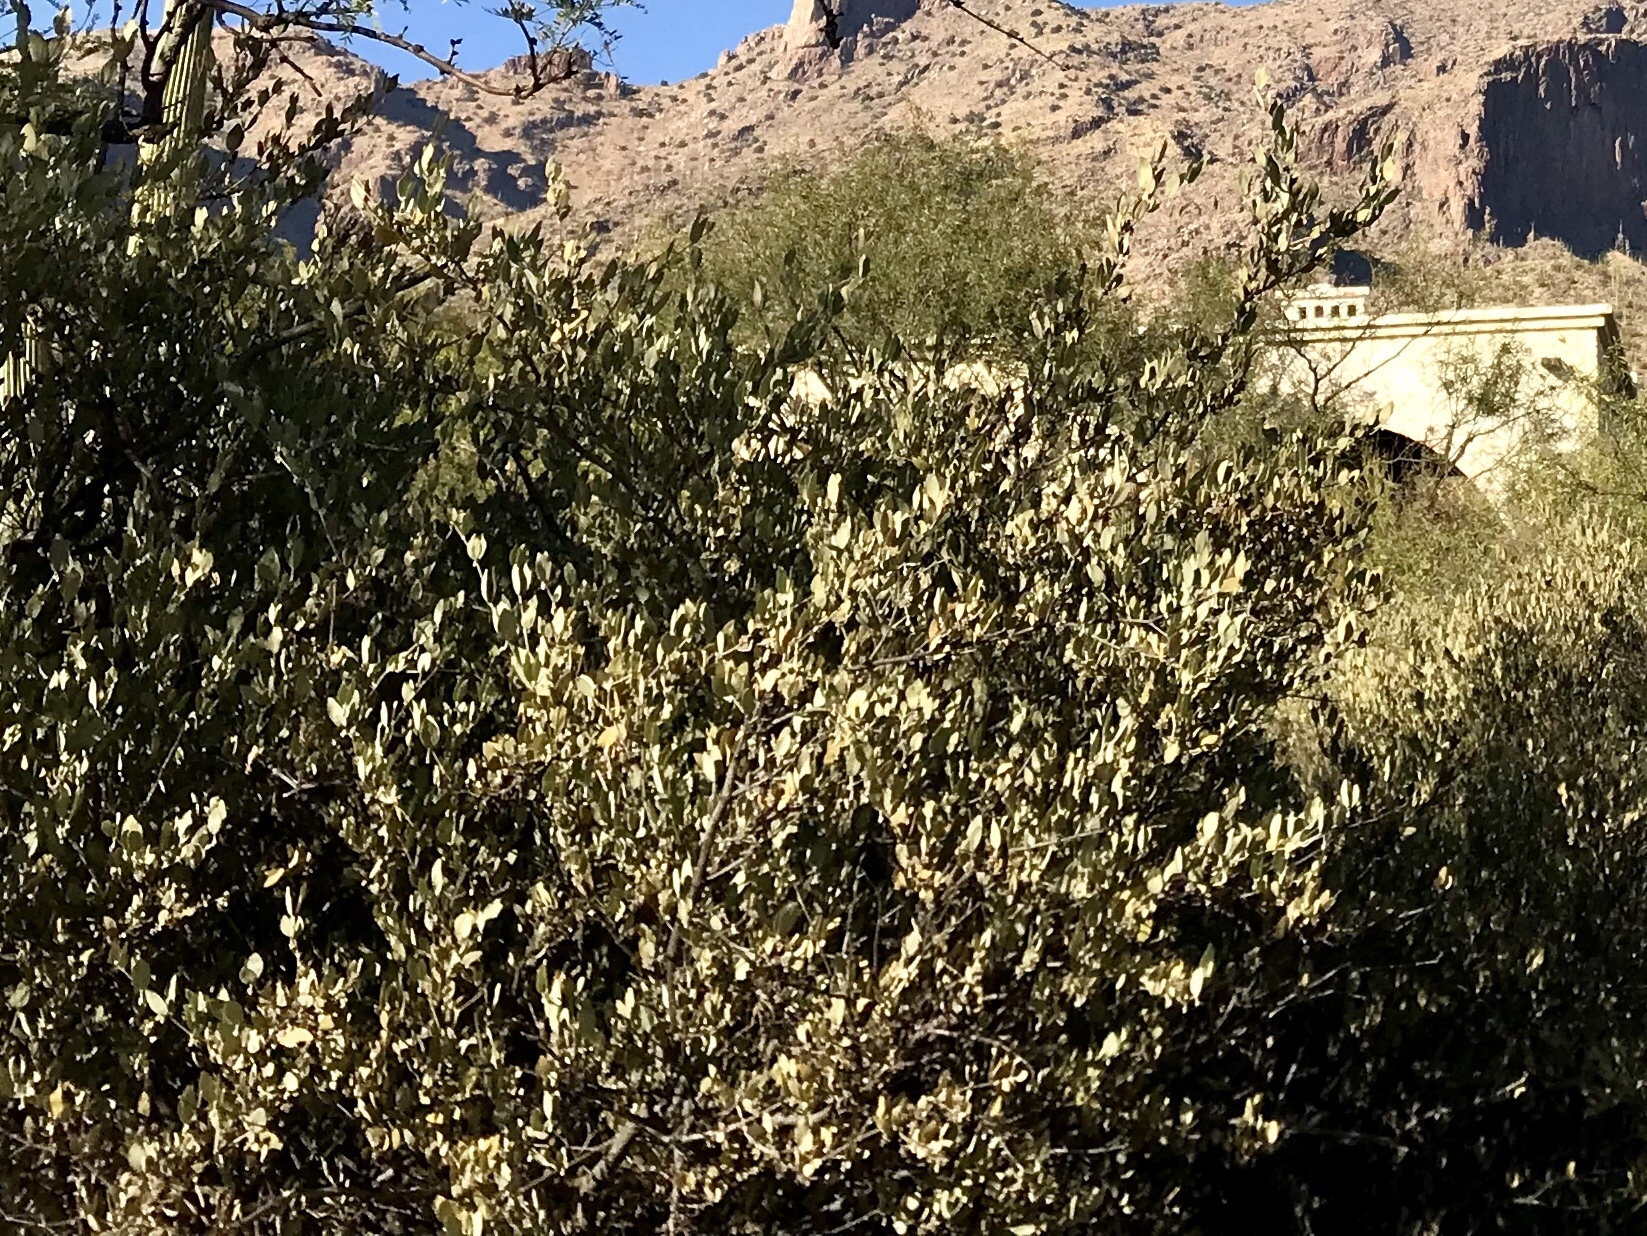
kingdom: Plantae
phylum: Tracheophyta
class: Magnoliopsida
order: Caryophyllales
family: Simmondsiaceae
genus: Simmondsia
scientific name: Simmondsia chinensis
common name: Jojoba
